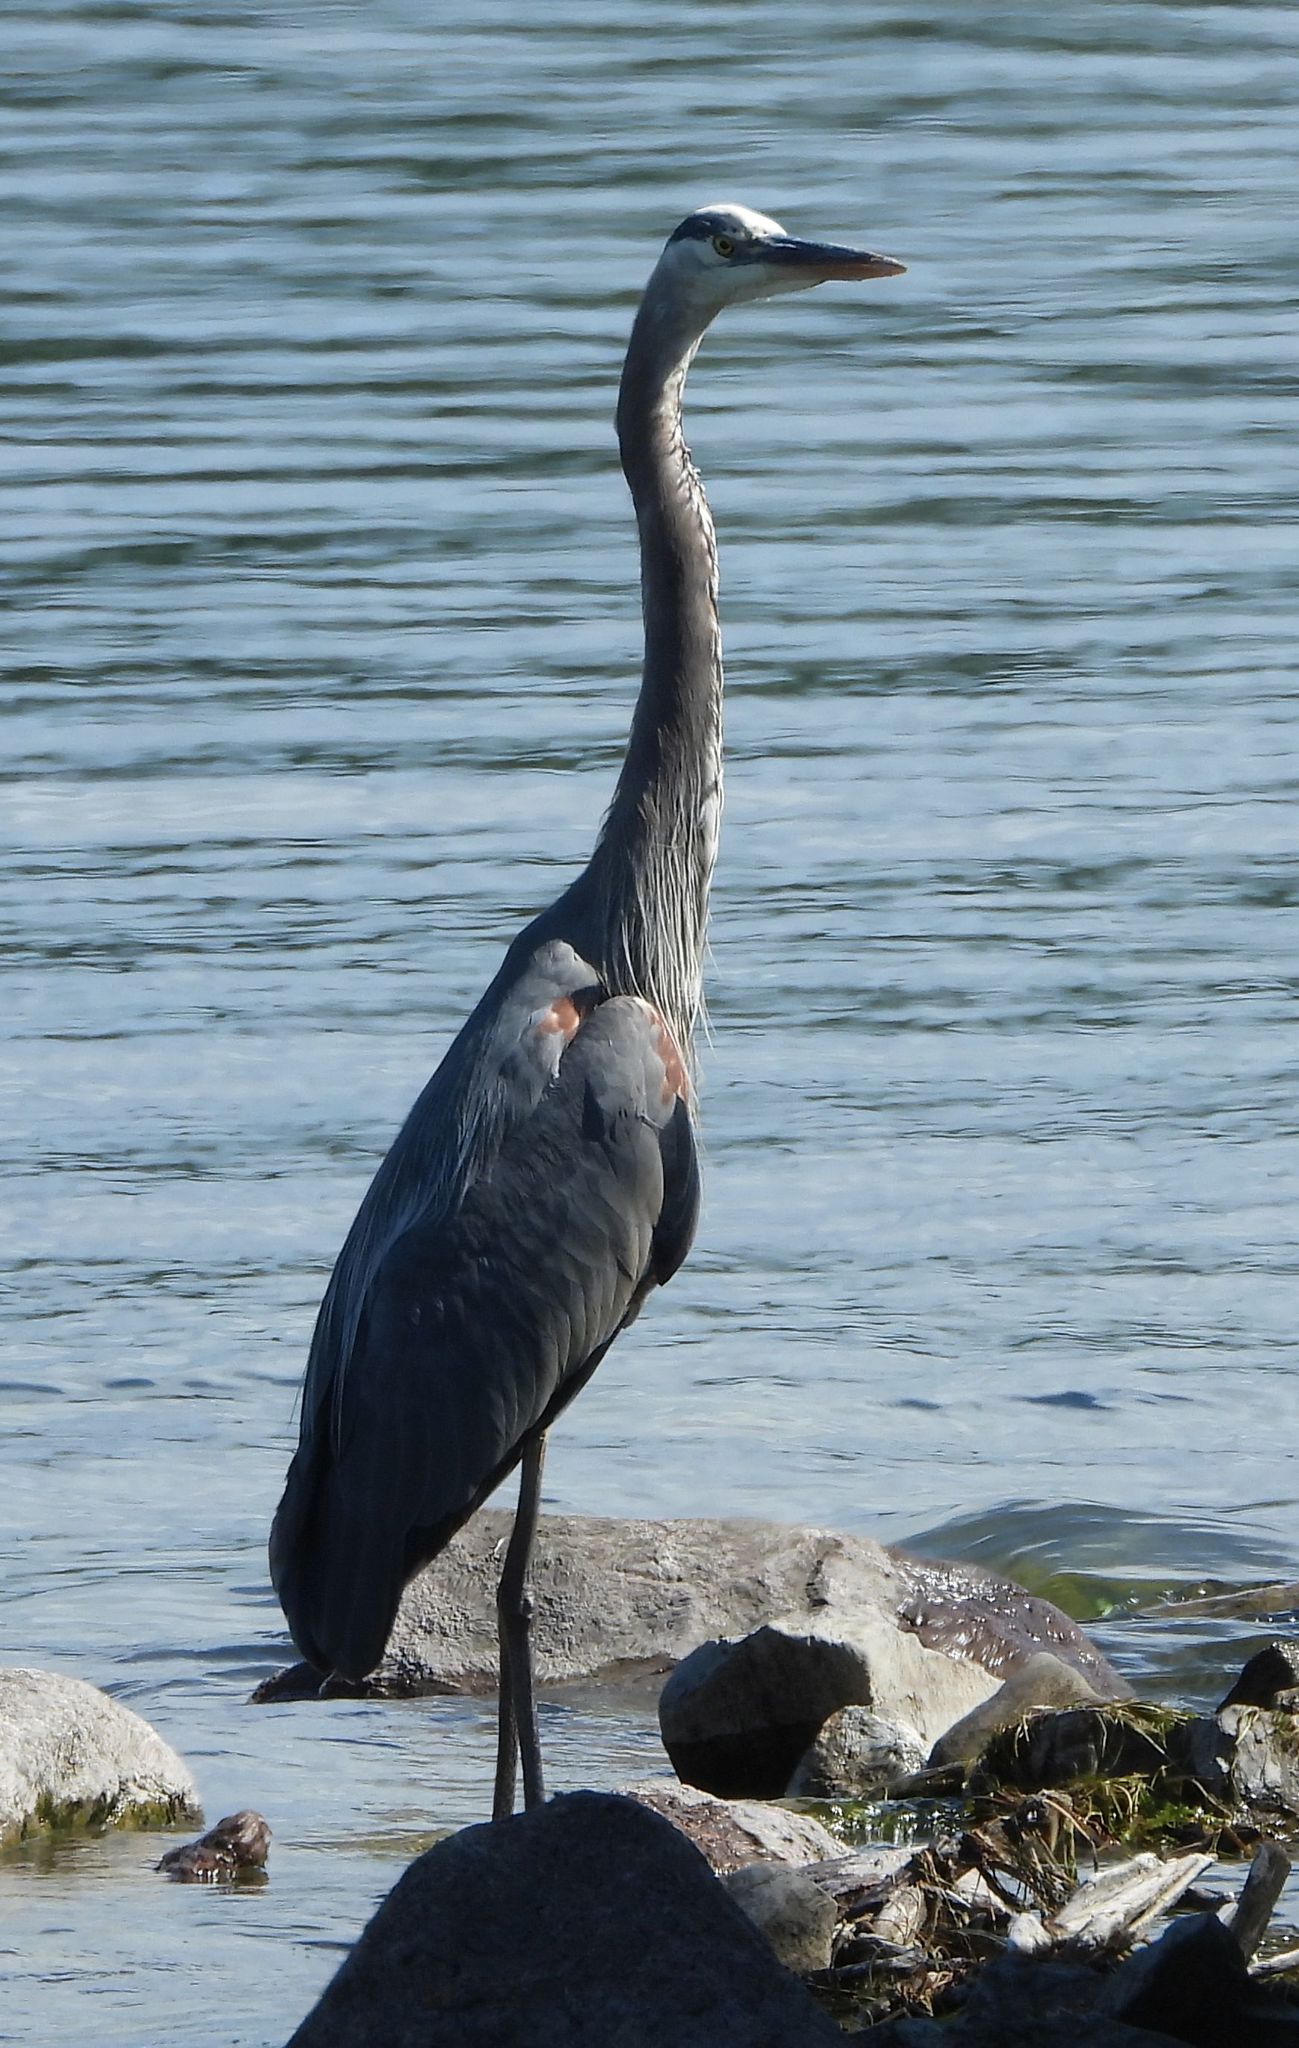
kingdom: Animalia
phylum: Chordata
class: Aves
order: Pelecaniformes
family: Ardeidae
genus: Ardea
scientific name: Ardea herodias
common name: Great blue heron
